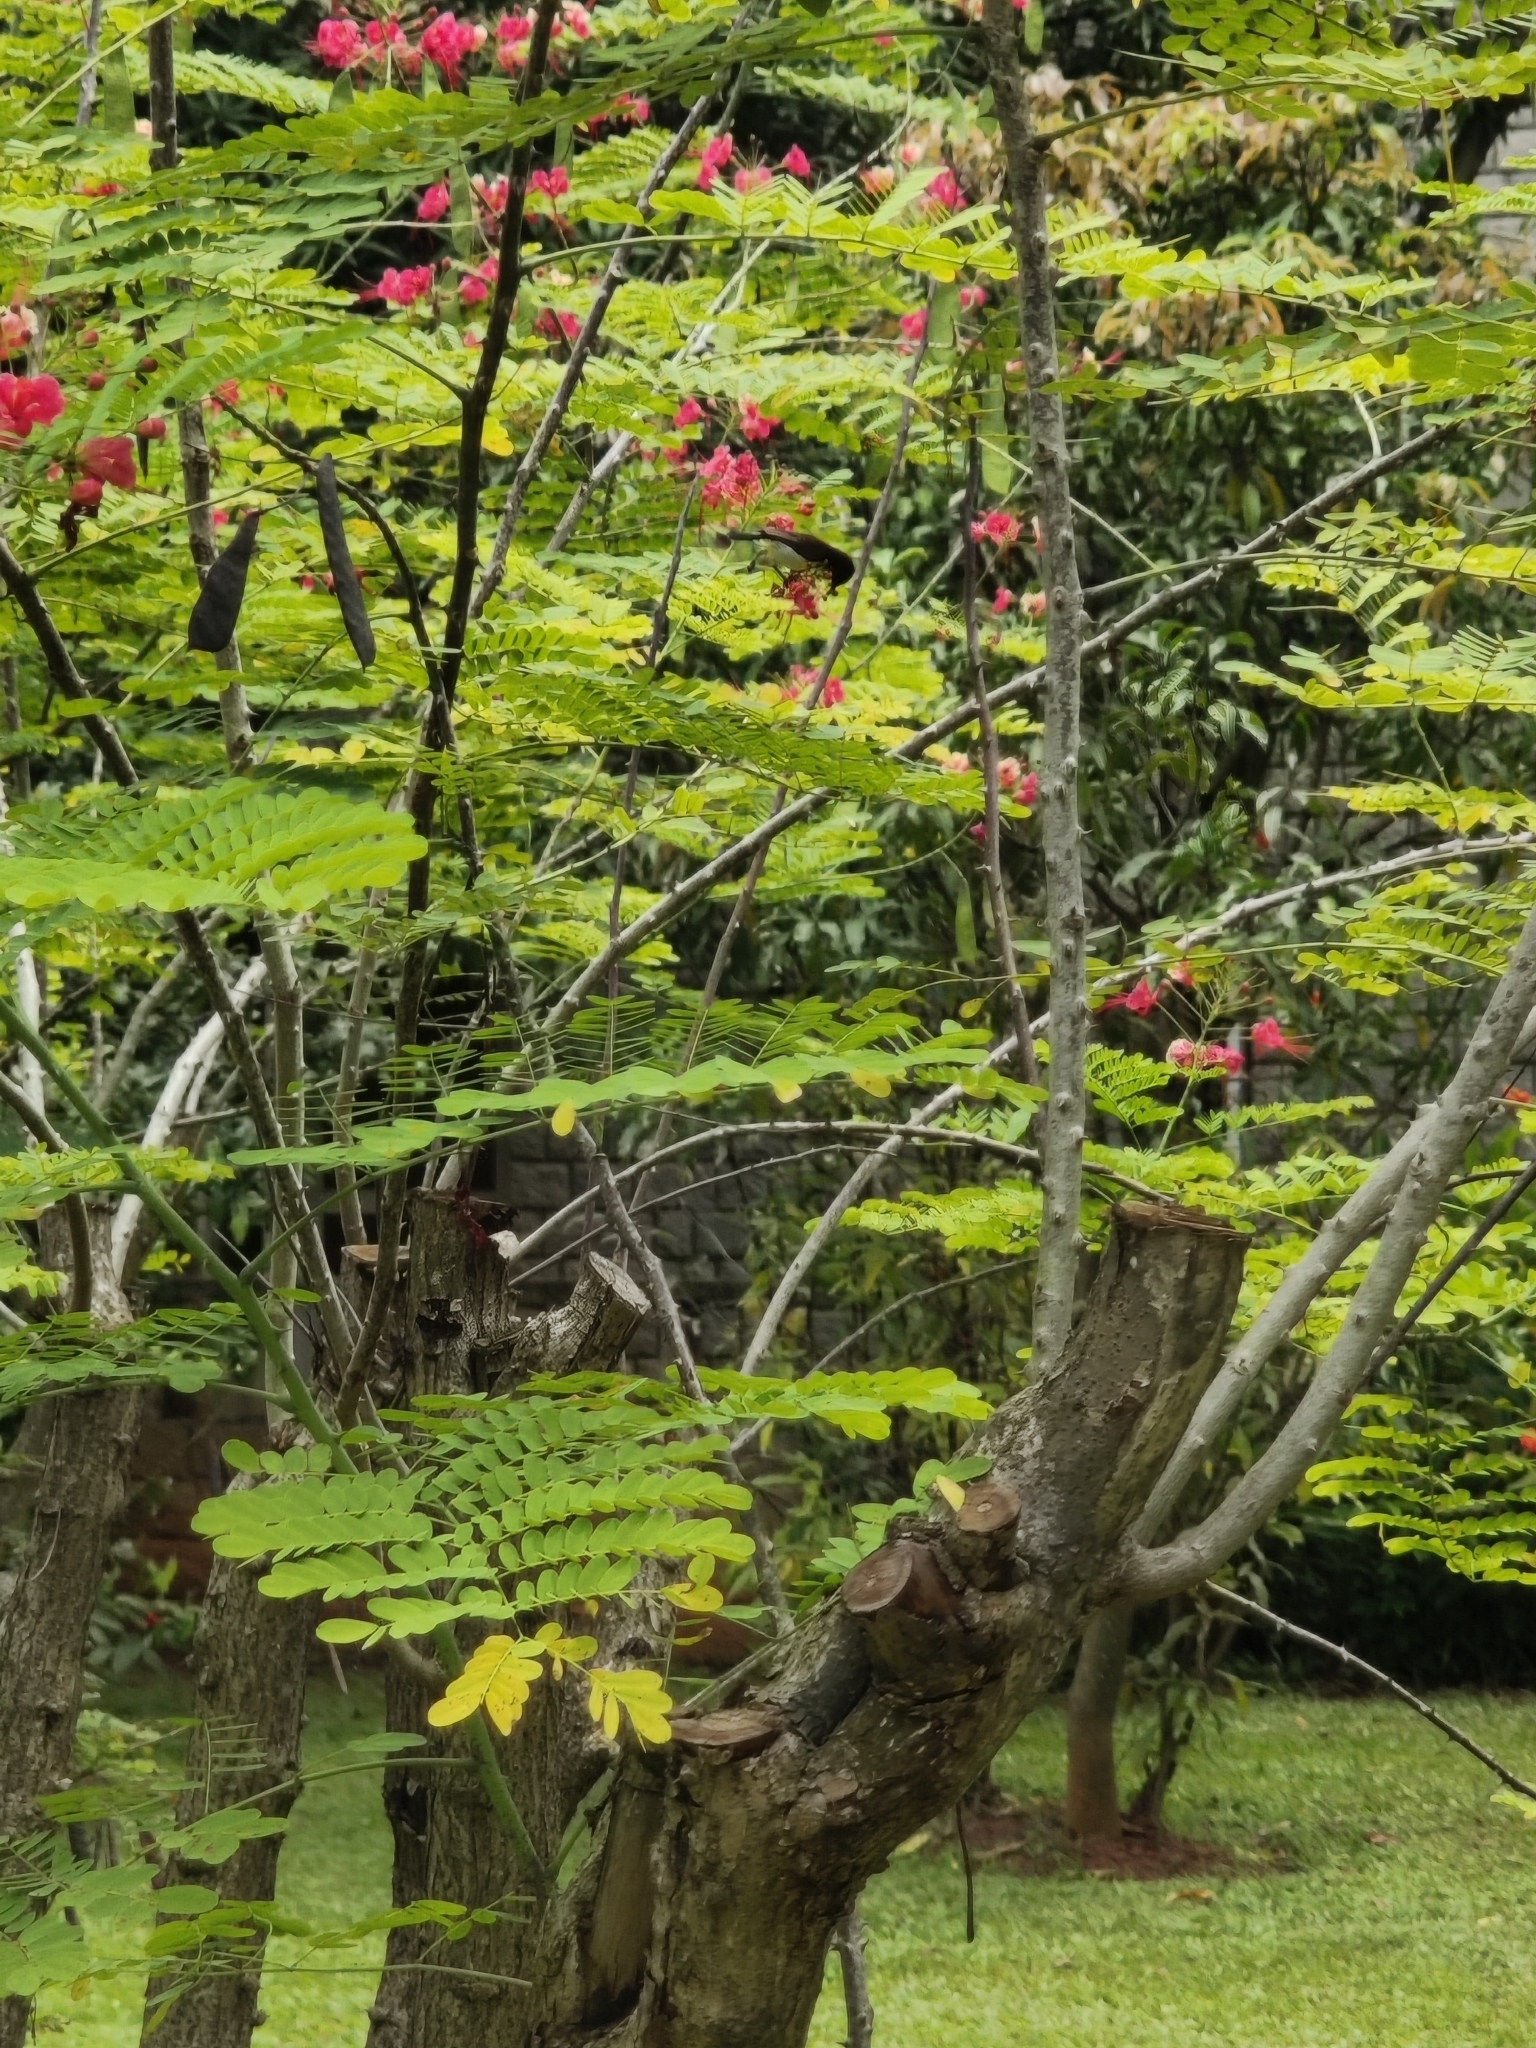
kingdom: Plantae
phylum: Tracheophyta
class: Magnoliopsida
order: Fabales
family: Fabaceae
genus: Caesalpinia
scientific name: Caesalpinia pulcherrima
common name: Pride-of-barbados
